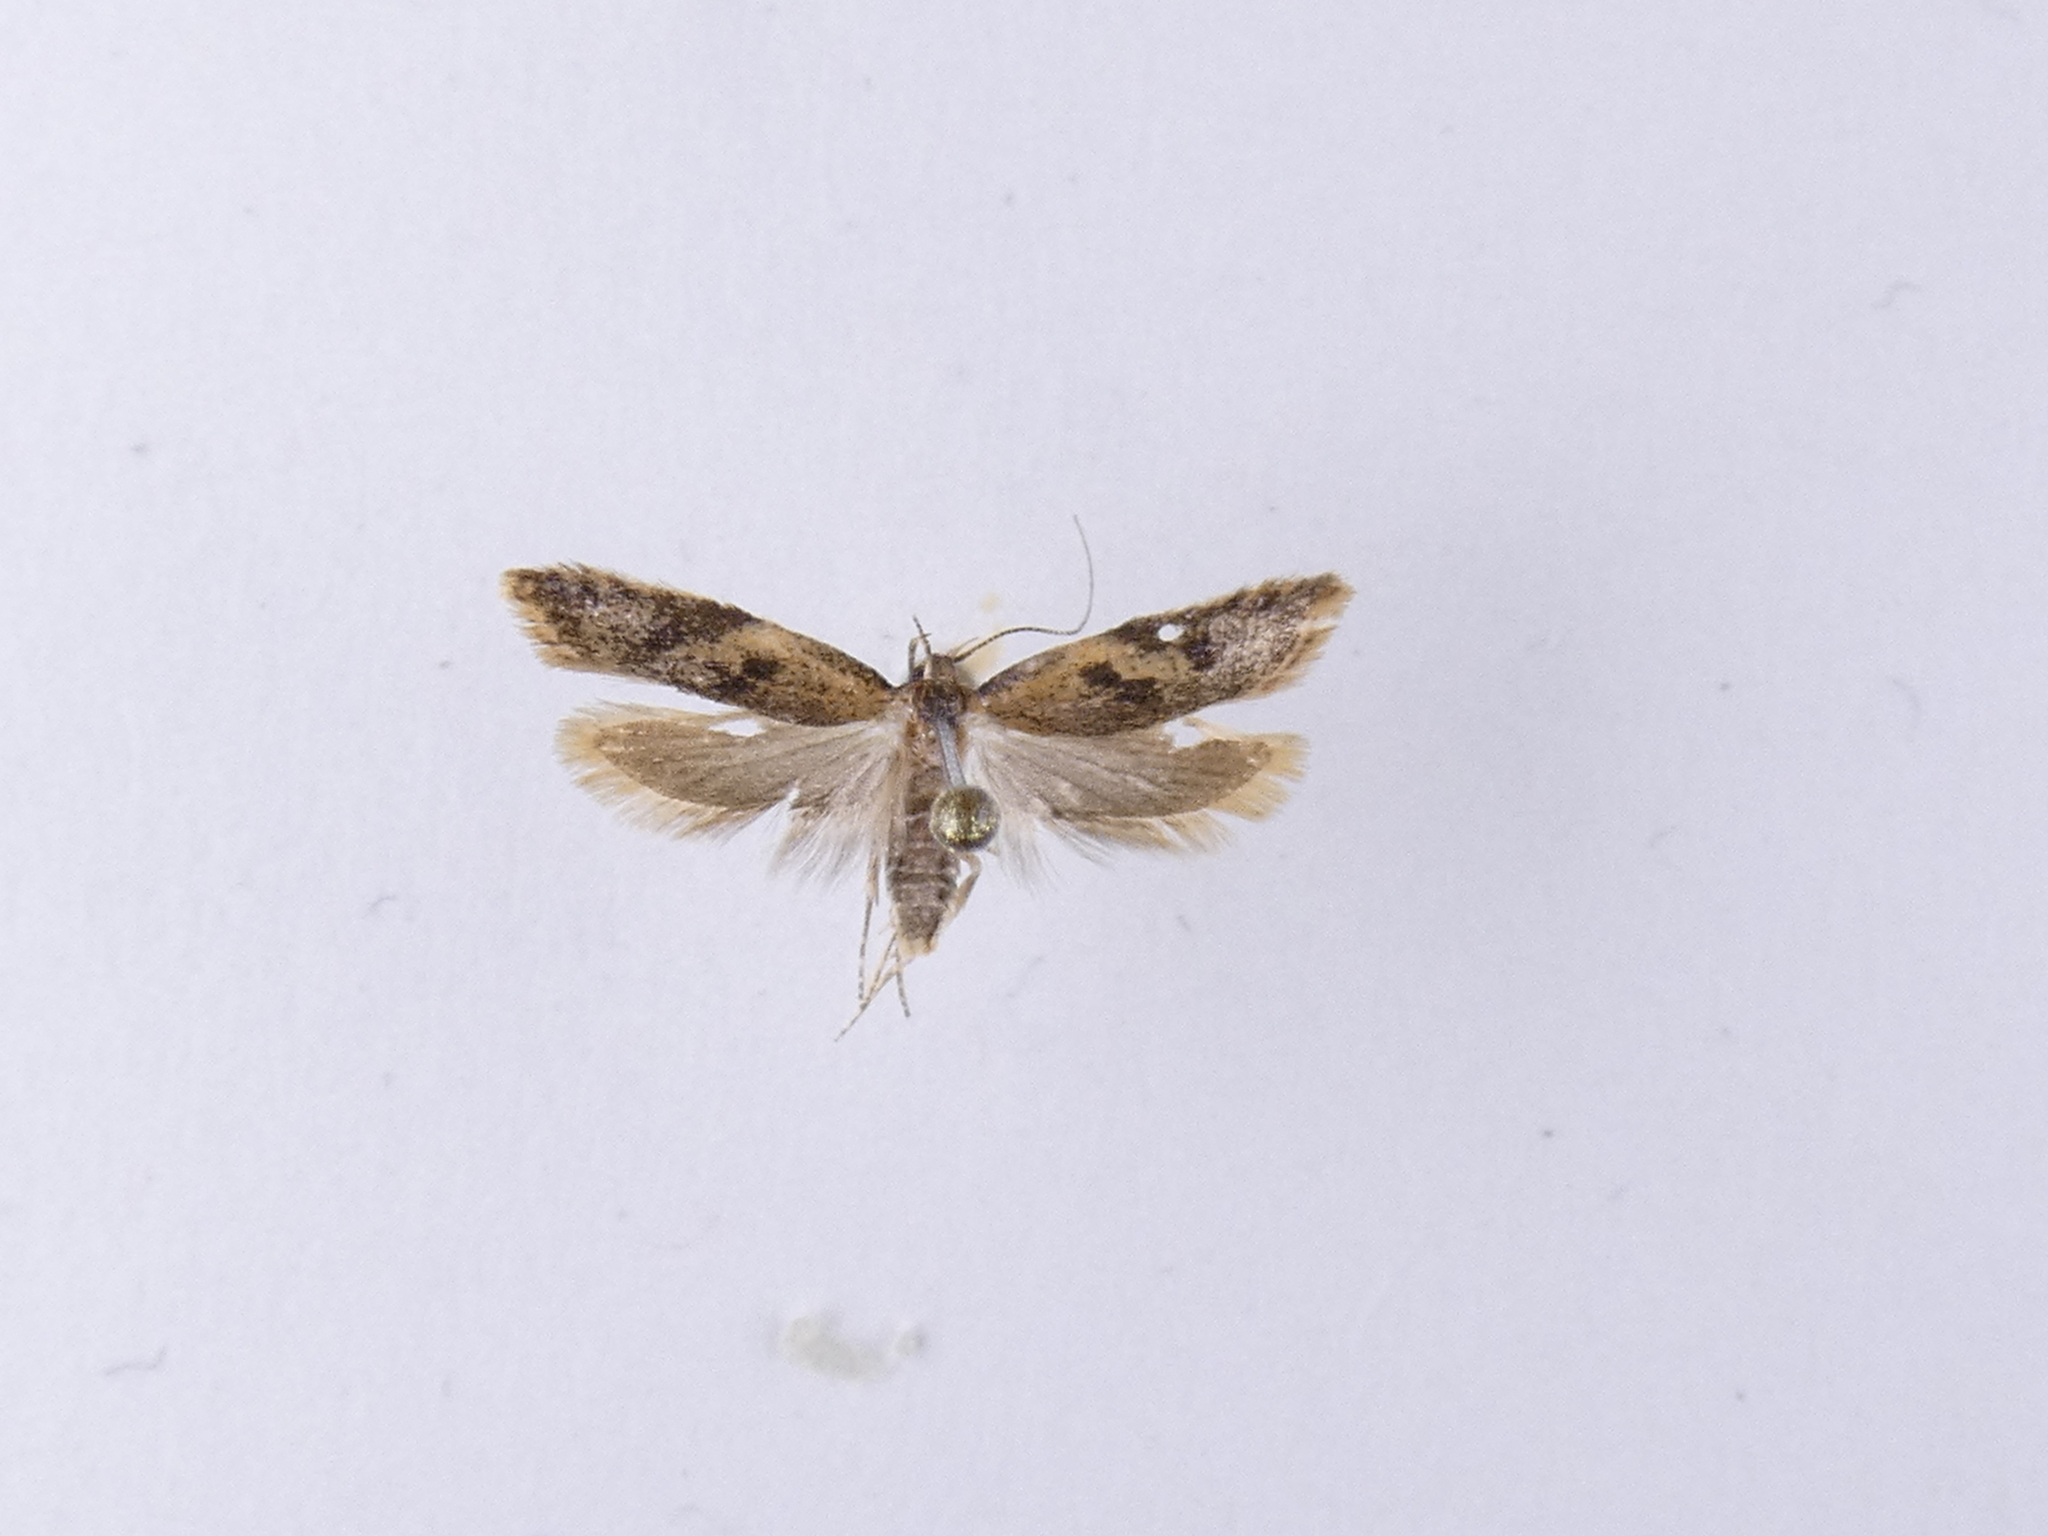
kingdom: Animalia
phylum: Arthropoda
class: Insecta
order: Lepidoptera
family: Oecophoridae
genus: Gymnobathra
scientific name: Gymnobathra tholodella
